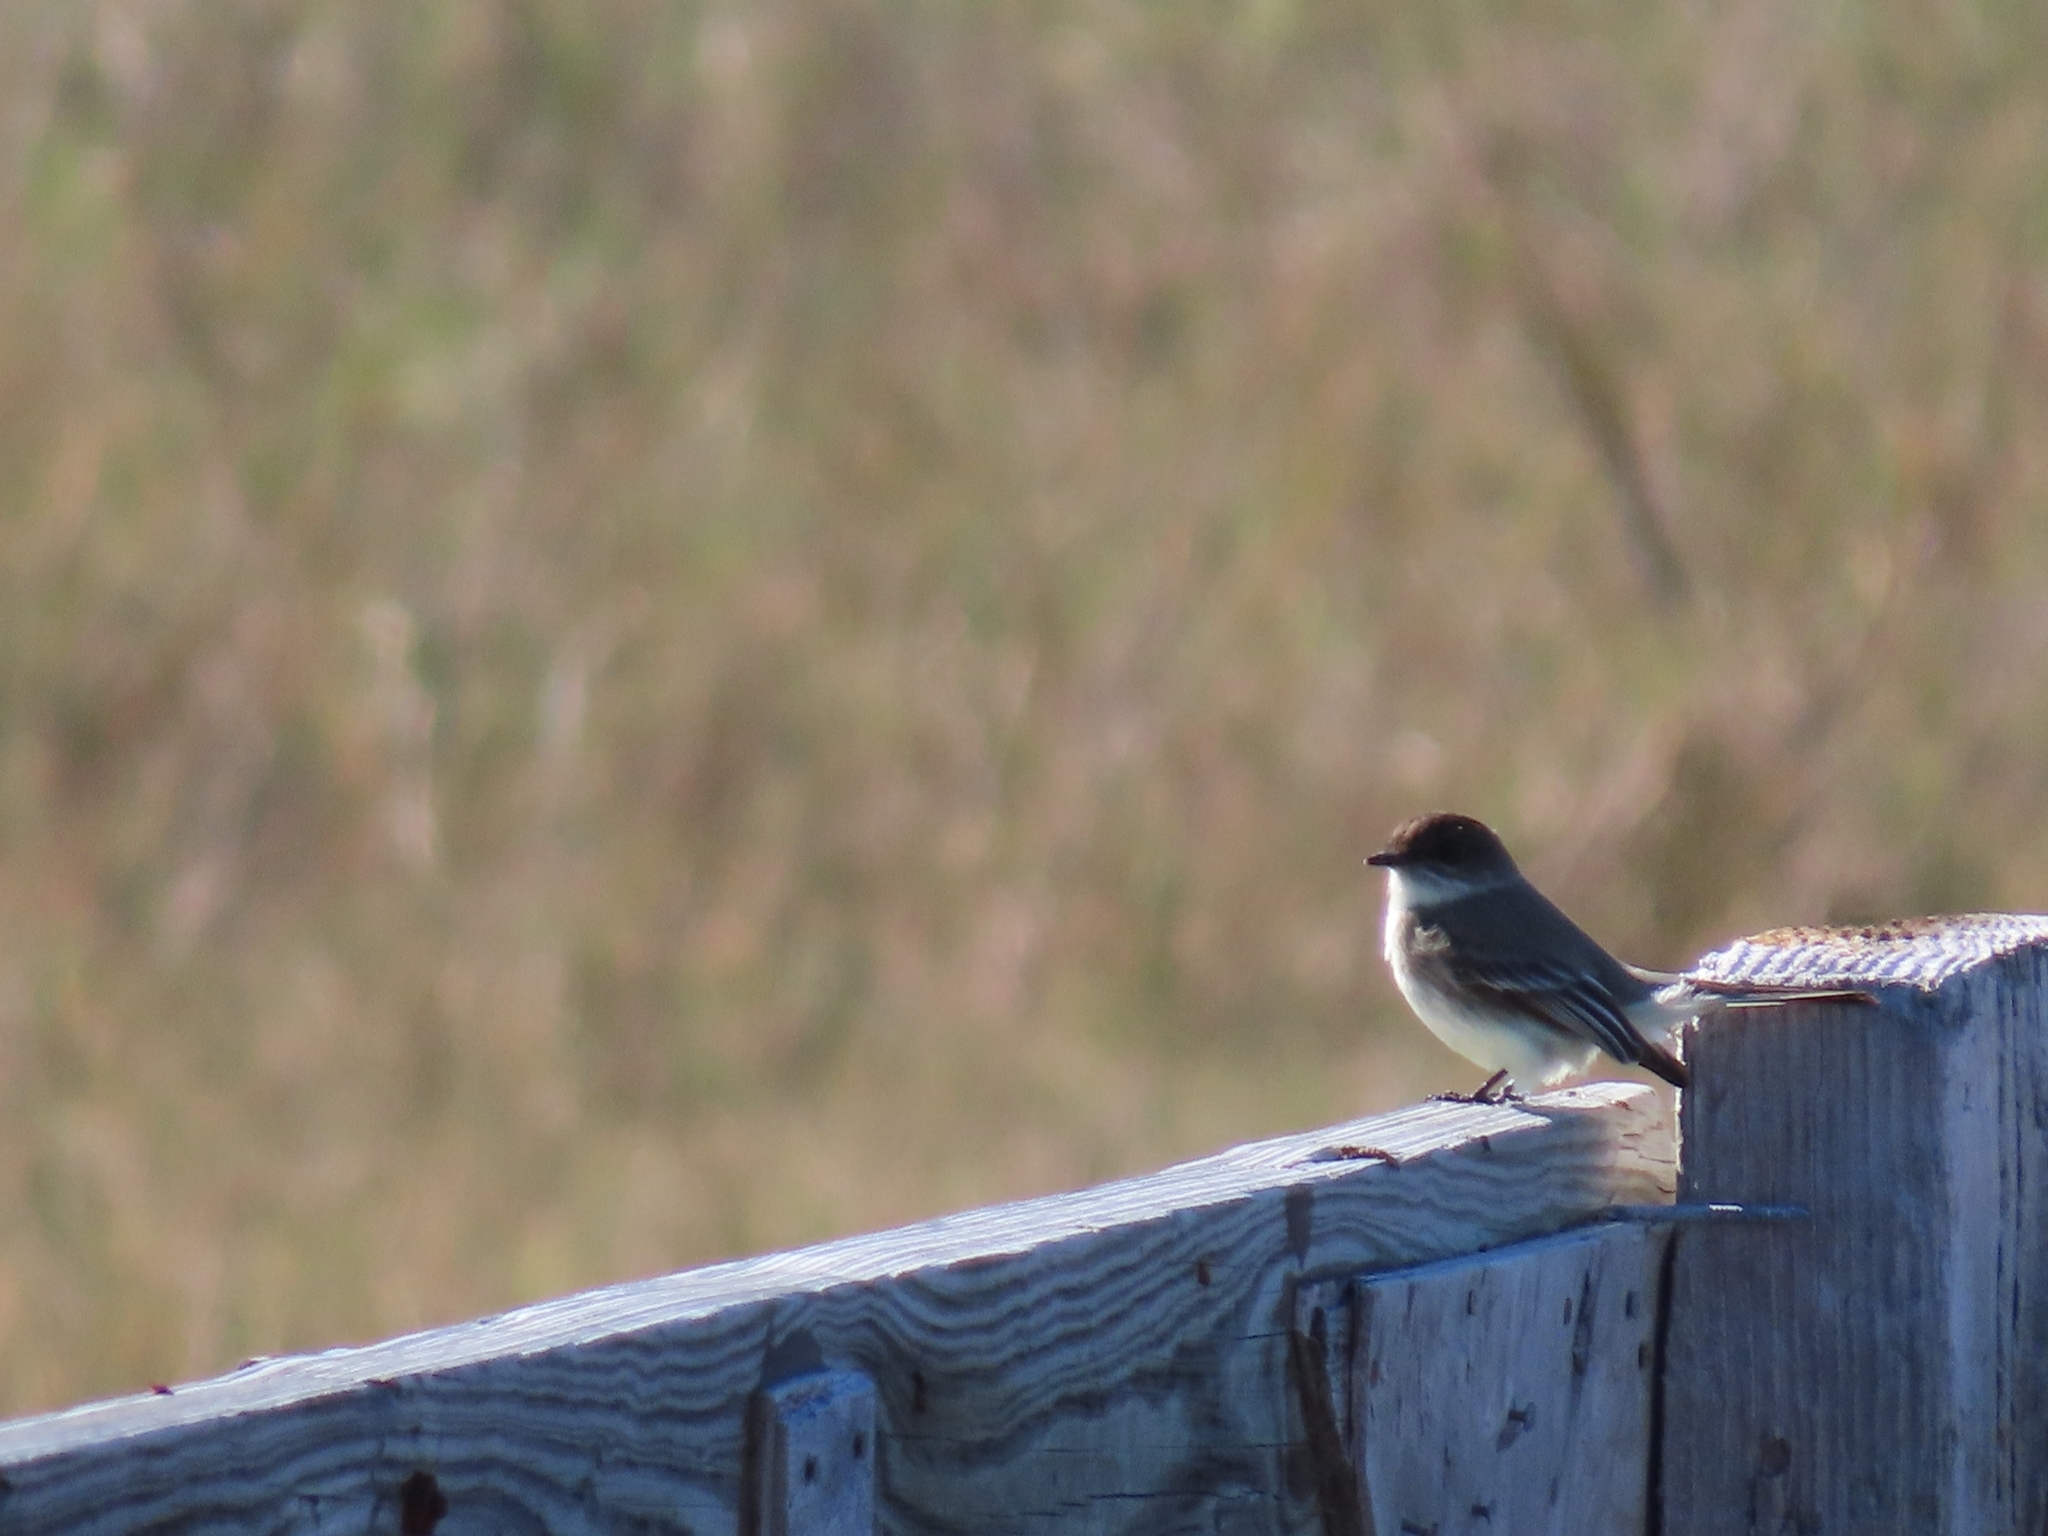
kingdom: Animalia
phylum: Chordata
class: Aves
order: Passeriformes
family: Tyrannidae
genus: Sayornis
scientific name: Sayornis phoebe
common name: Eastern phoebe
